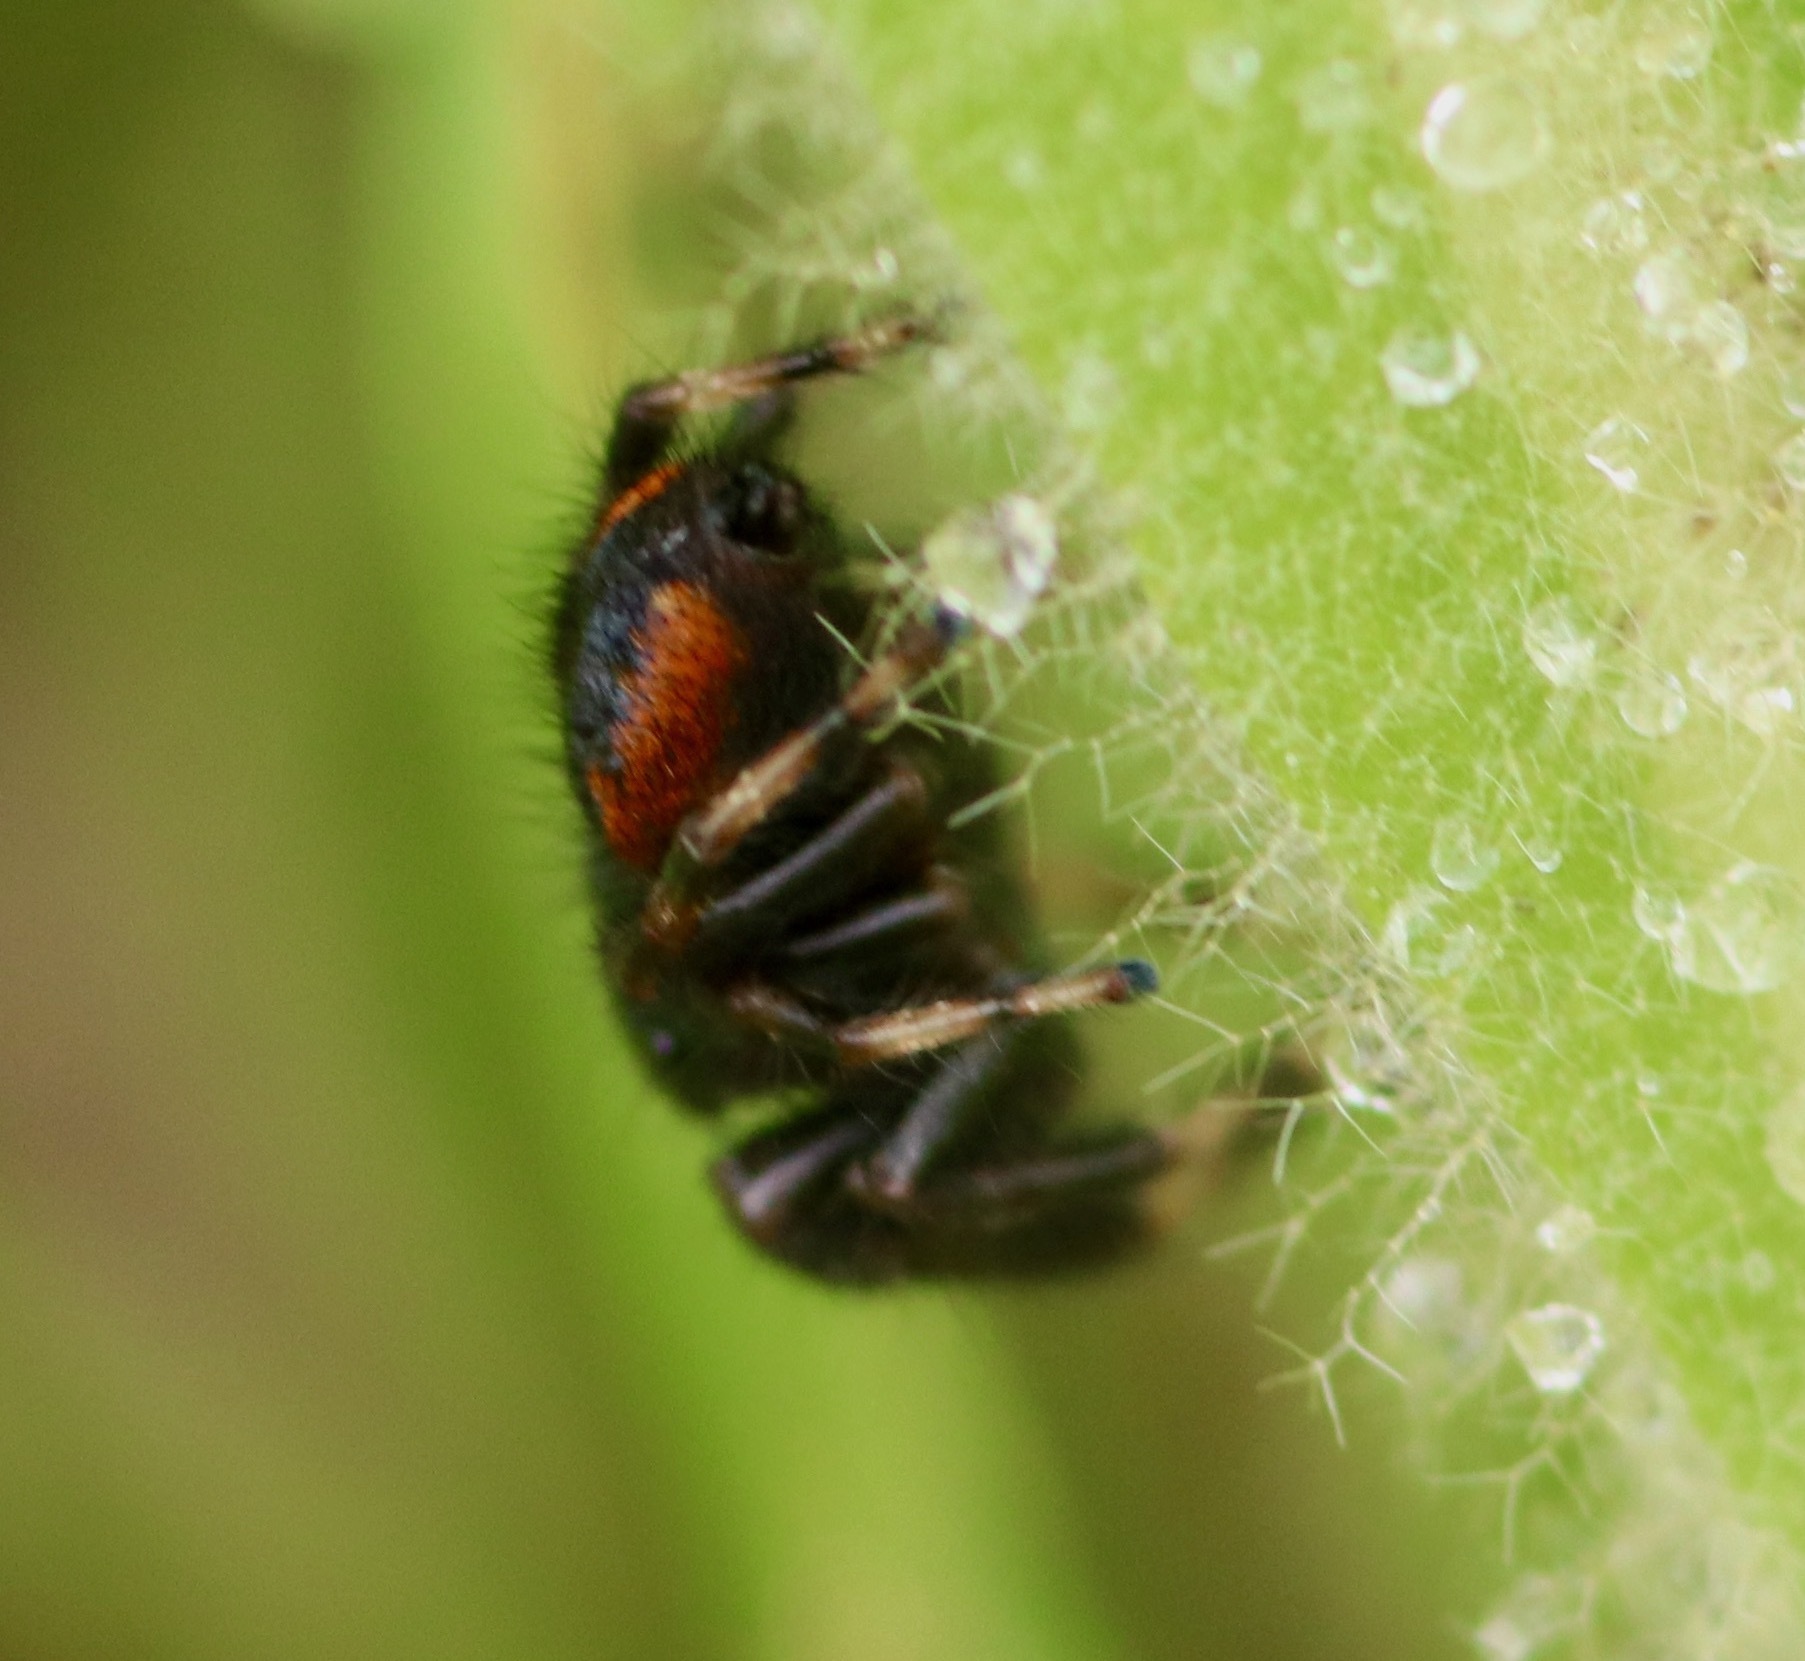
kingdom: Animalia
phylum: Arthropoda
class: Arachnida
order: Araneae
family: Salticidae
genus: Phidippus
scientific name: Phidippus clarus
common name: Brilliant jumping spider
